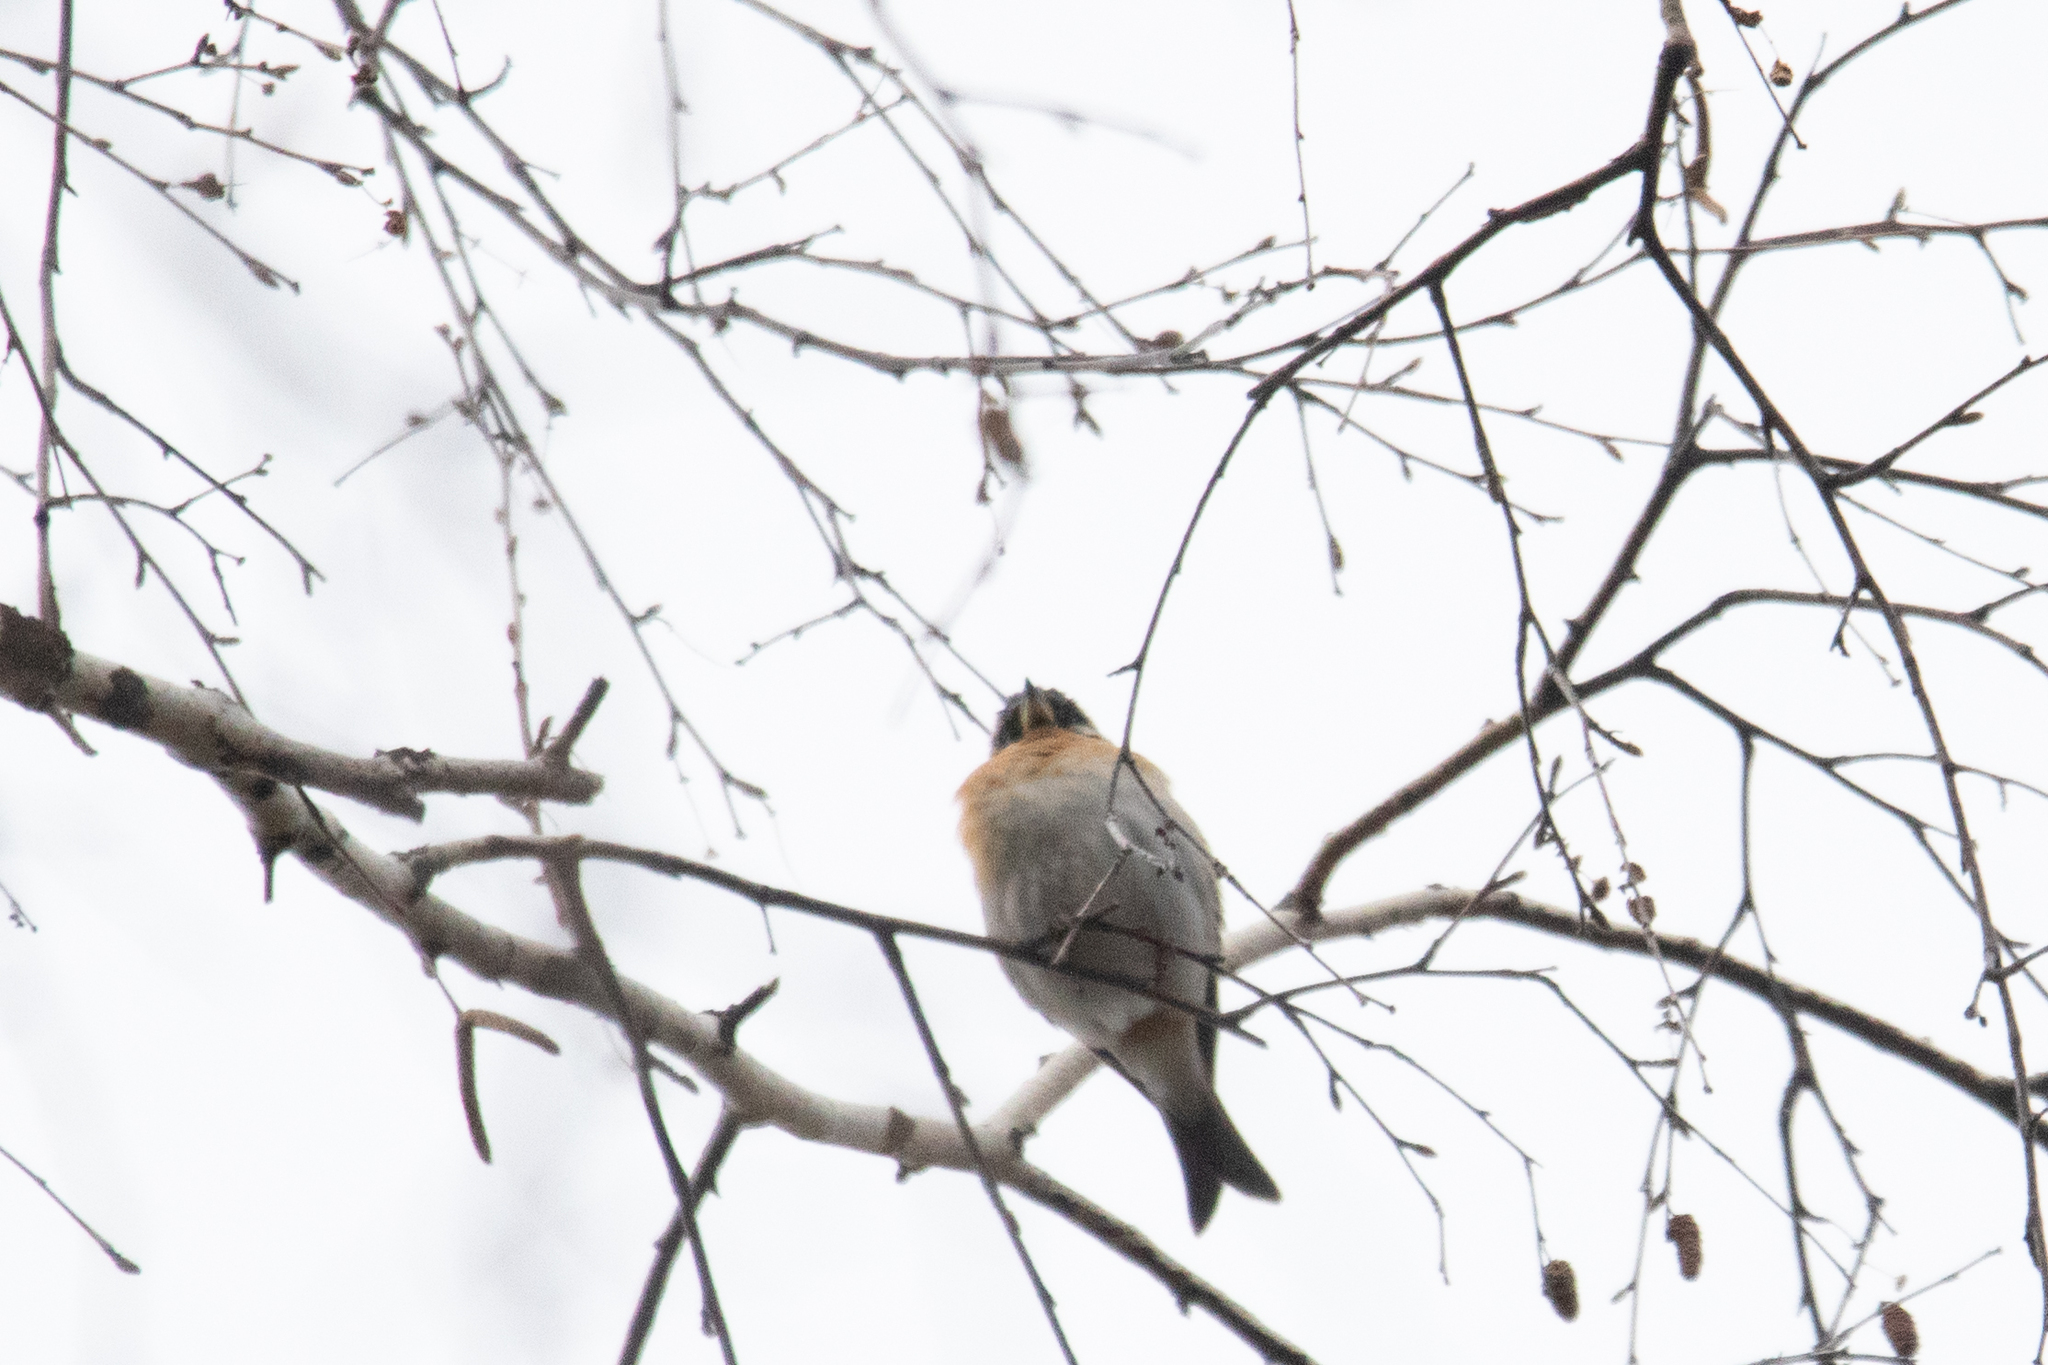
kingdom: Animalia
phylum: Chordata
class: Aves
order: Passeriformes
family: Fringillidae
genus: Fringilla
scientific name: Fringilla montifringilla
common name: Brambling
